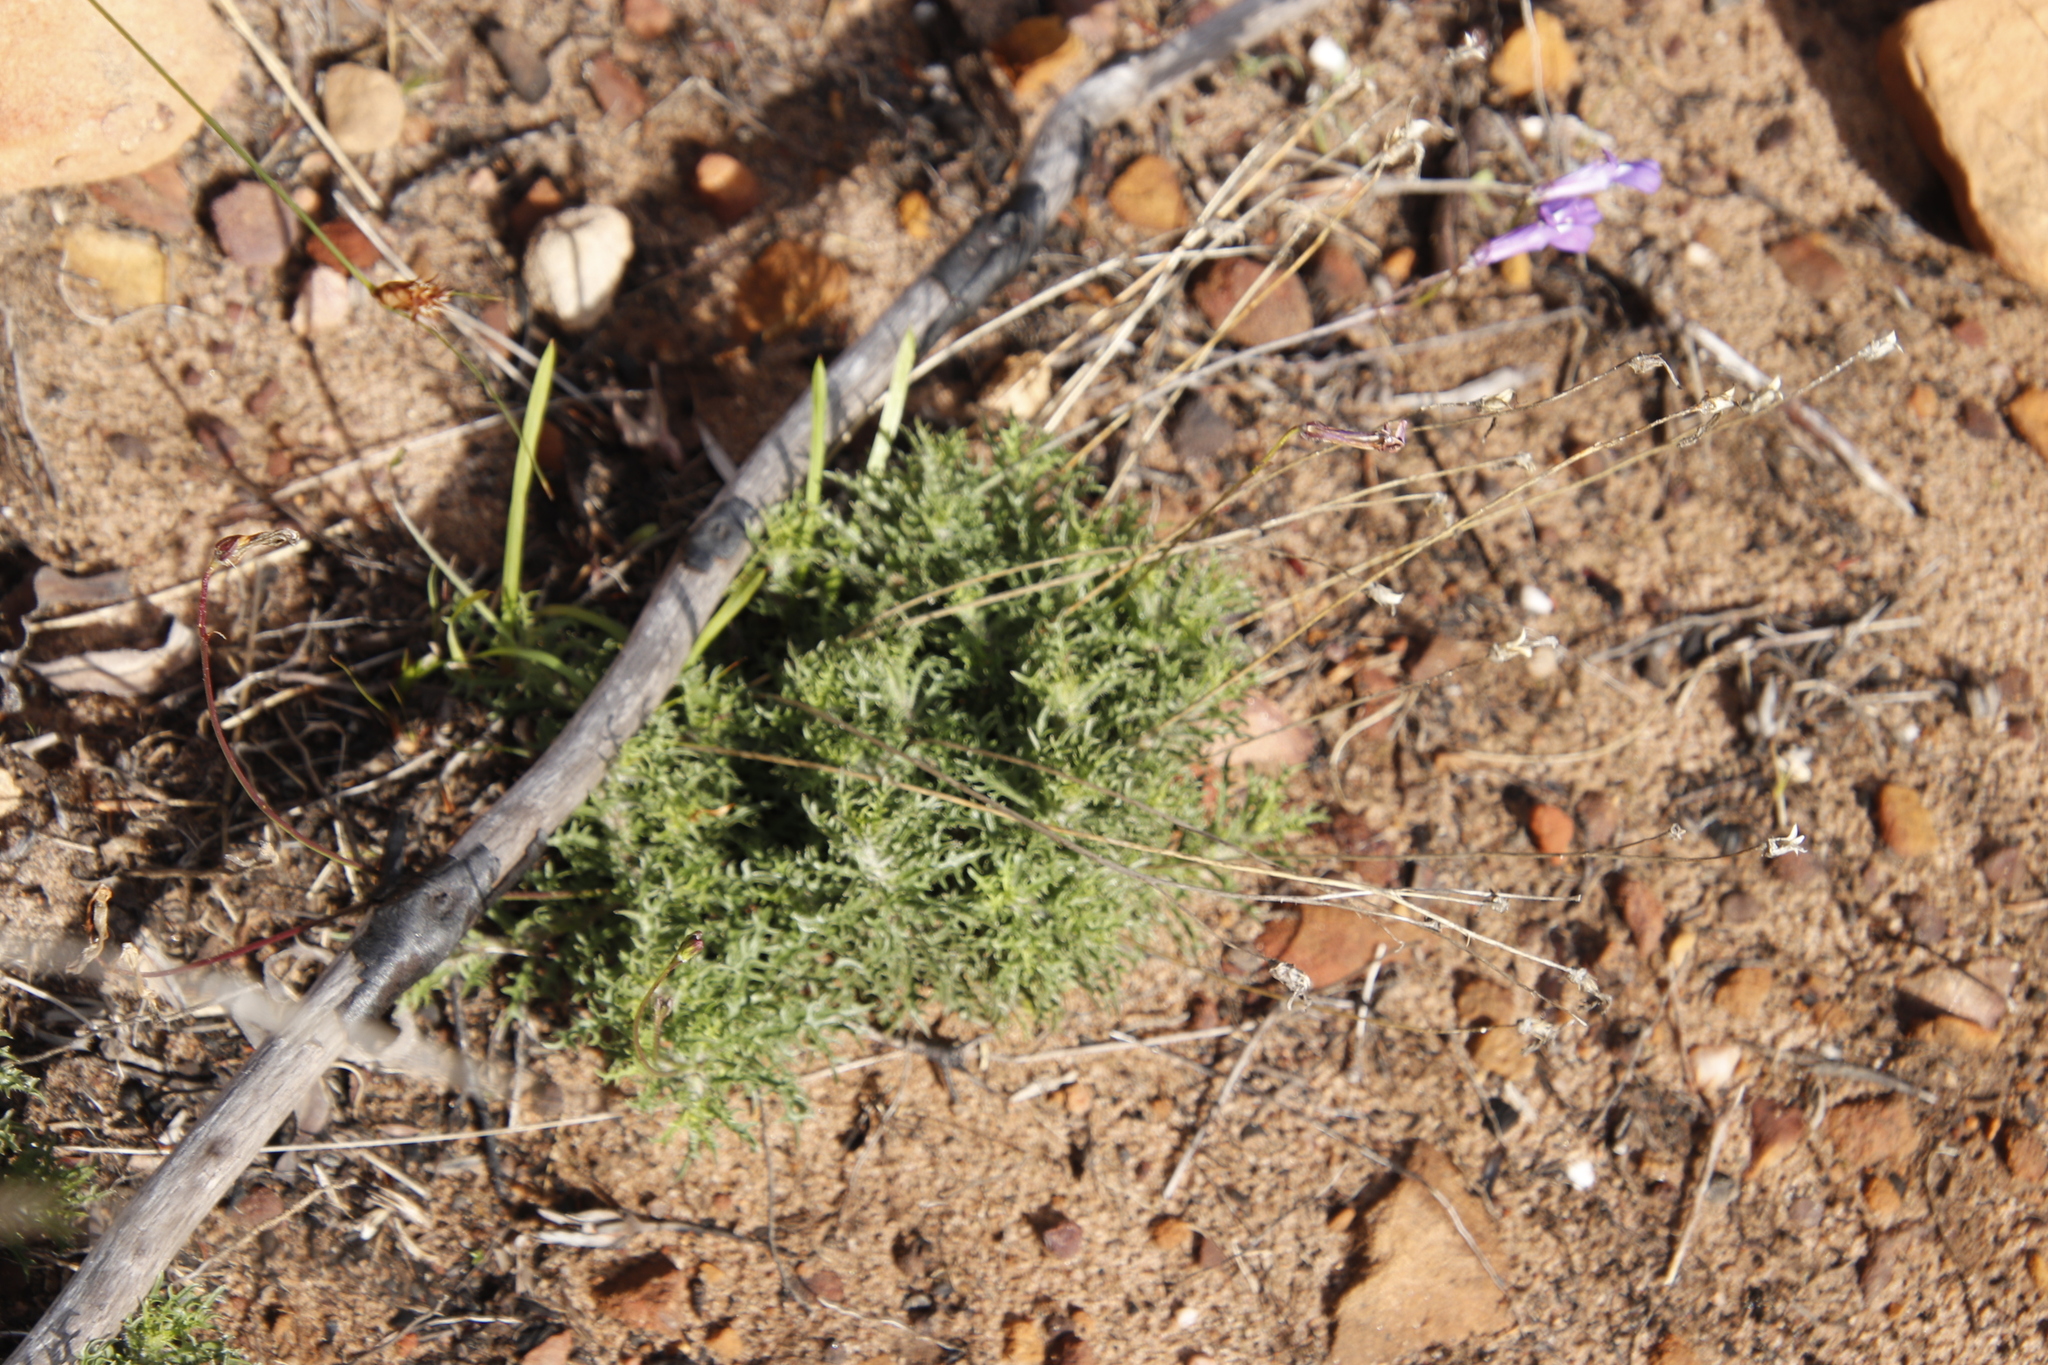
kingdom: Plantae
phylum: Tracheophyta
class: Magnoliopsida
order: Asterales
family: Campanulaceae
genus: Lobelia
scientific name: Lobelia coronopifolia
